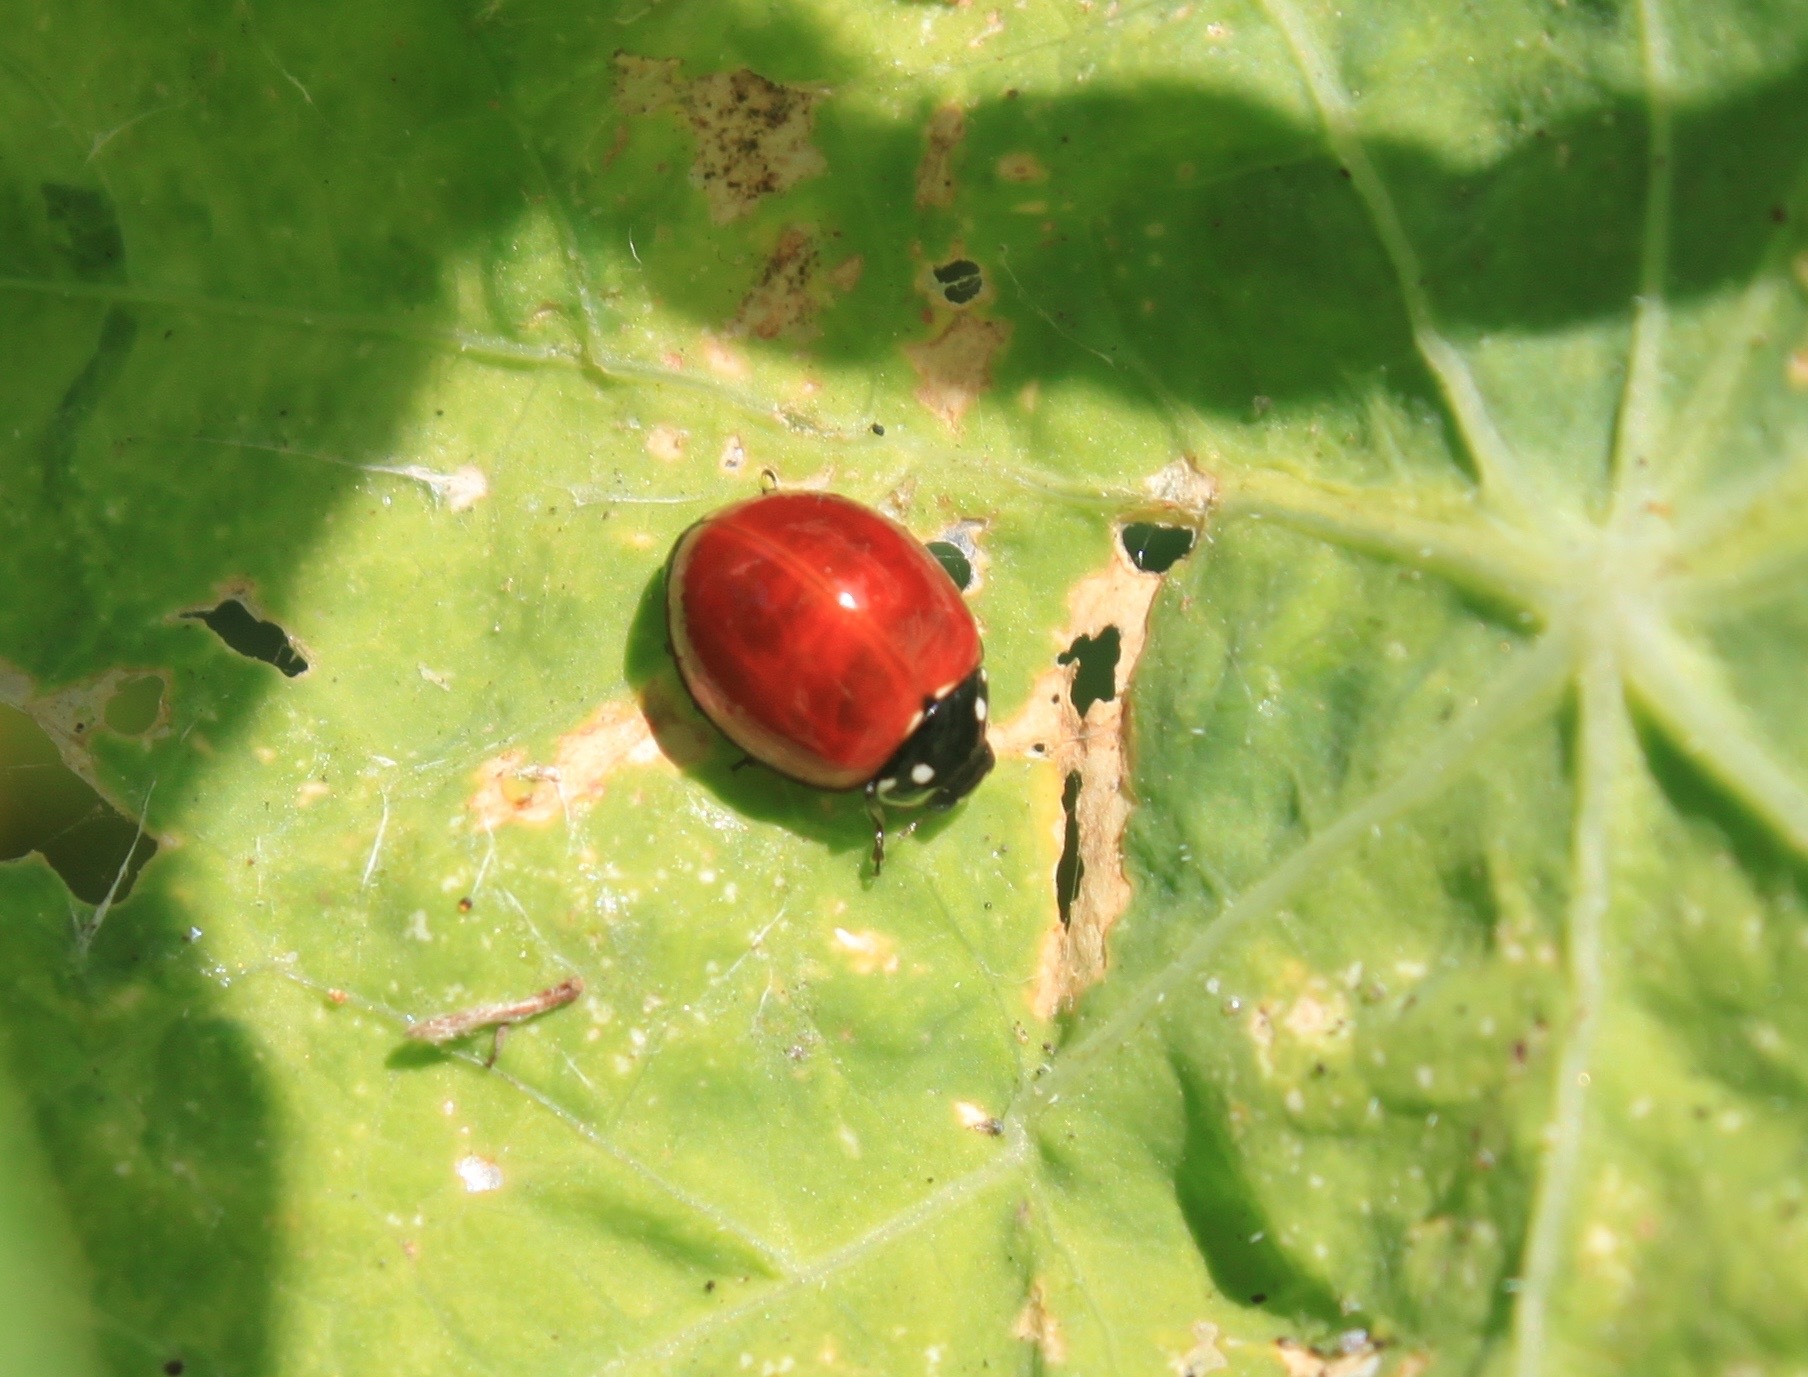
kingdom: Animalia
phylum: Arthropoda
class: Insecta
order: Coleoptera
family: Coccinellidae
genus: Cycloneda
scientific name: Cycloneda sanguinea
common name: Ladybird beetle
